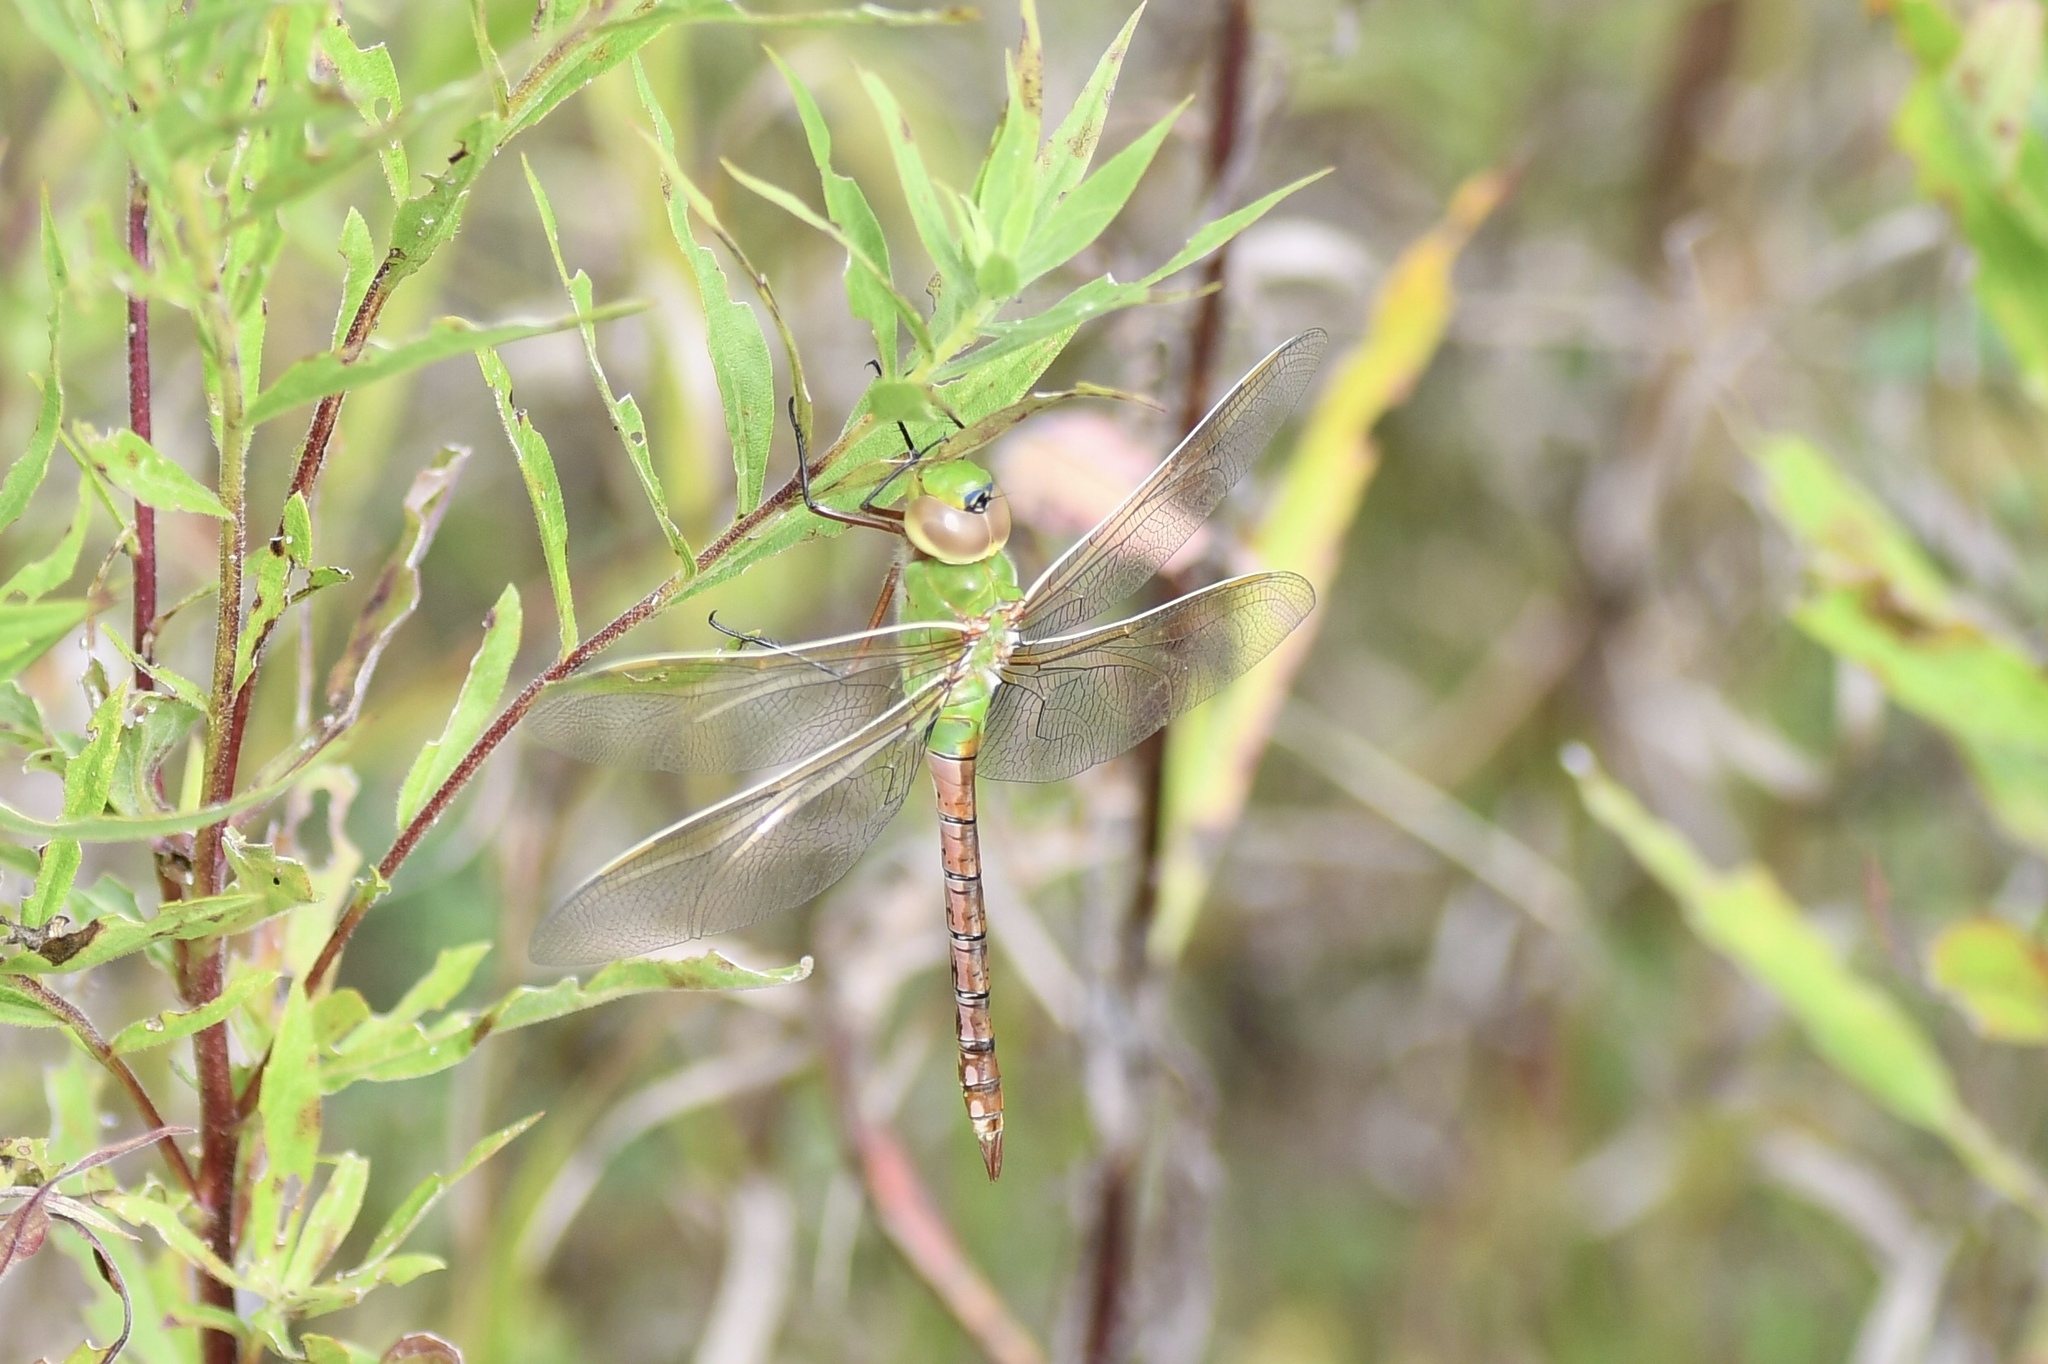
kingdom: Animalia
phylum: Arthropoda
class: Insecta
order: Odonata
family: Aeshnidae
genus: Anax
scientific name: Anax junius
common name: Common green darner
